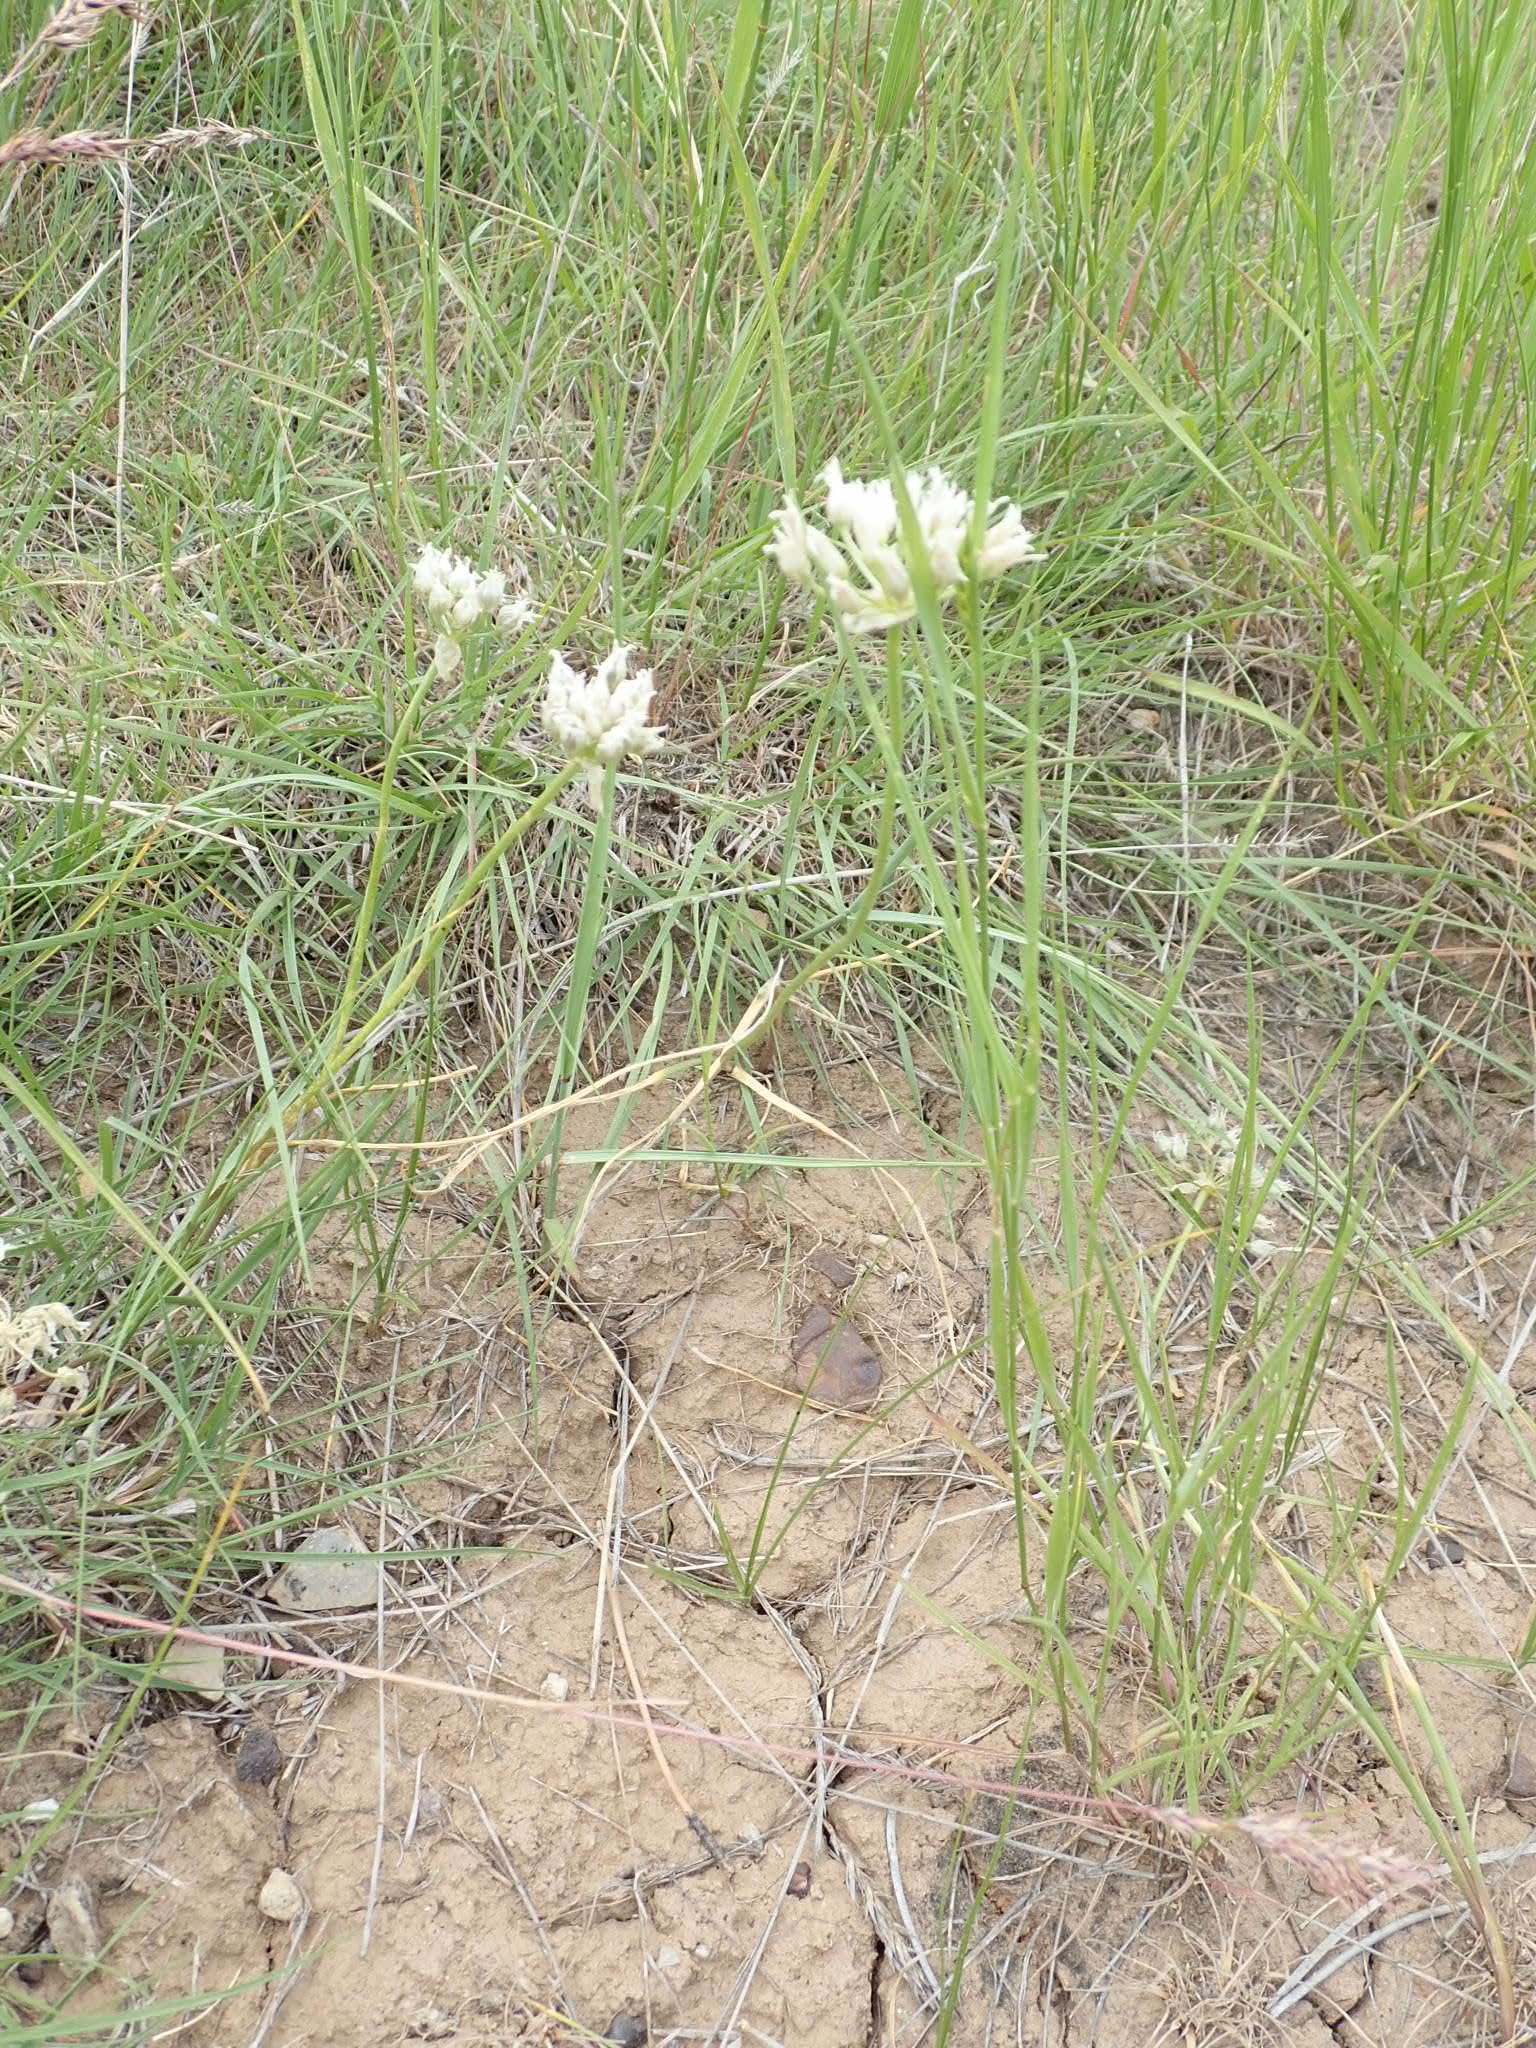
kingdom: Plantae
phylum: Tracheophyta
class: Liliopsida
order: Asparagales
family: Amaryllidaceae
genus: Allium
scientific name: Allium textile
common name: Prairie onion
